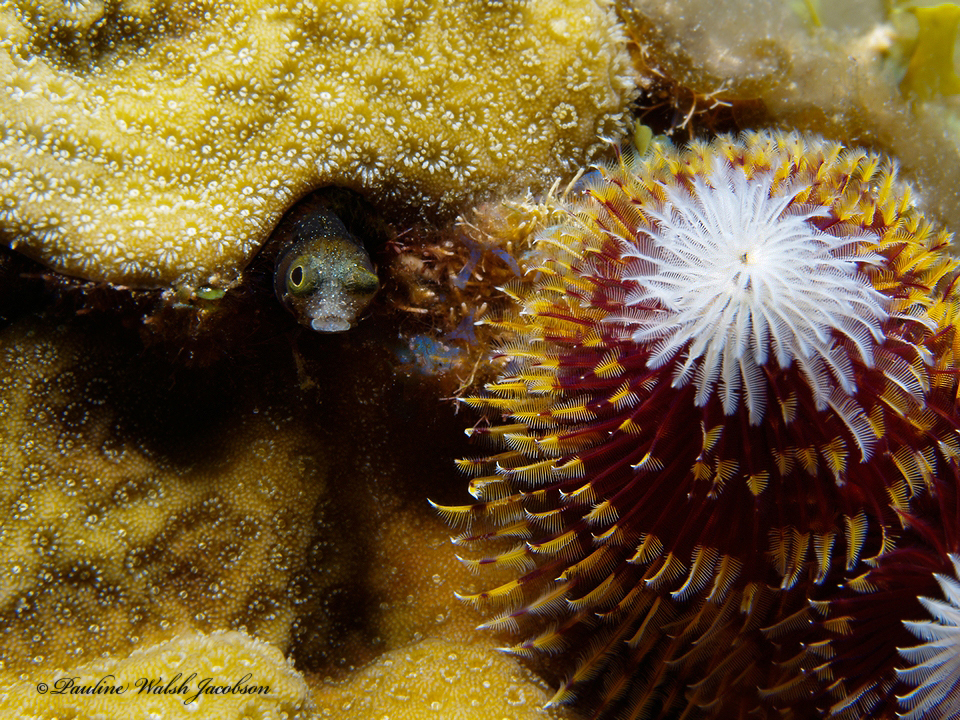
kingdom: Animalia
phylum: Chordata
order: Perciformes
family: Chaenopsidae
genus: Acanthemblemaria
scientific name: Acanthemblemaria spinosa
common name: Spinyhead blenny
